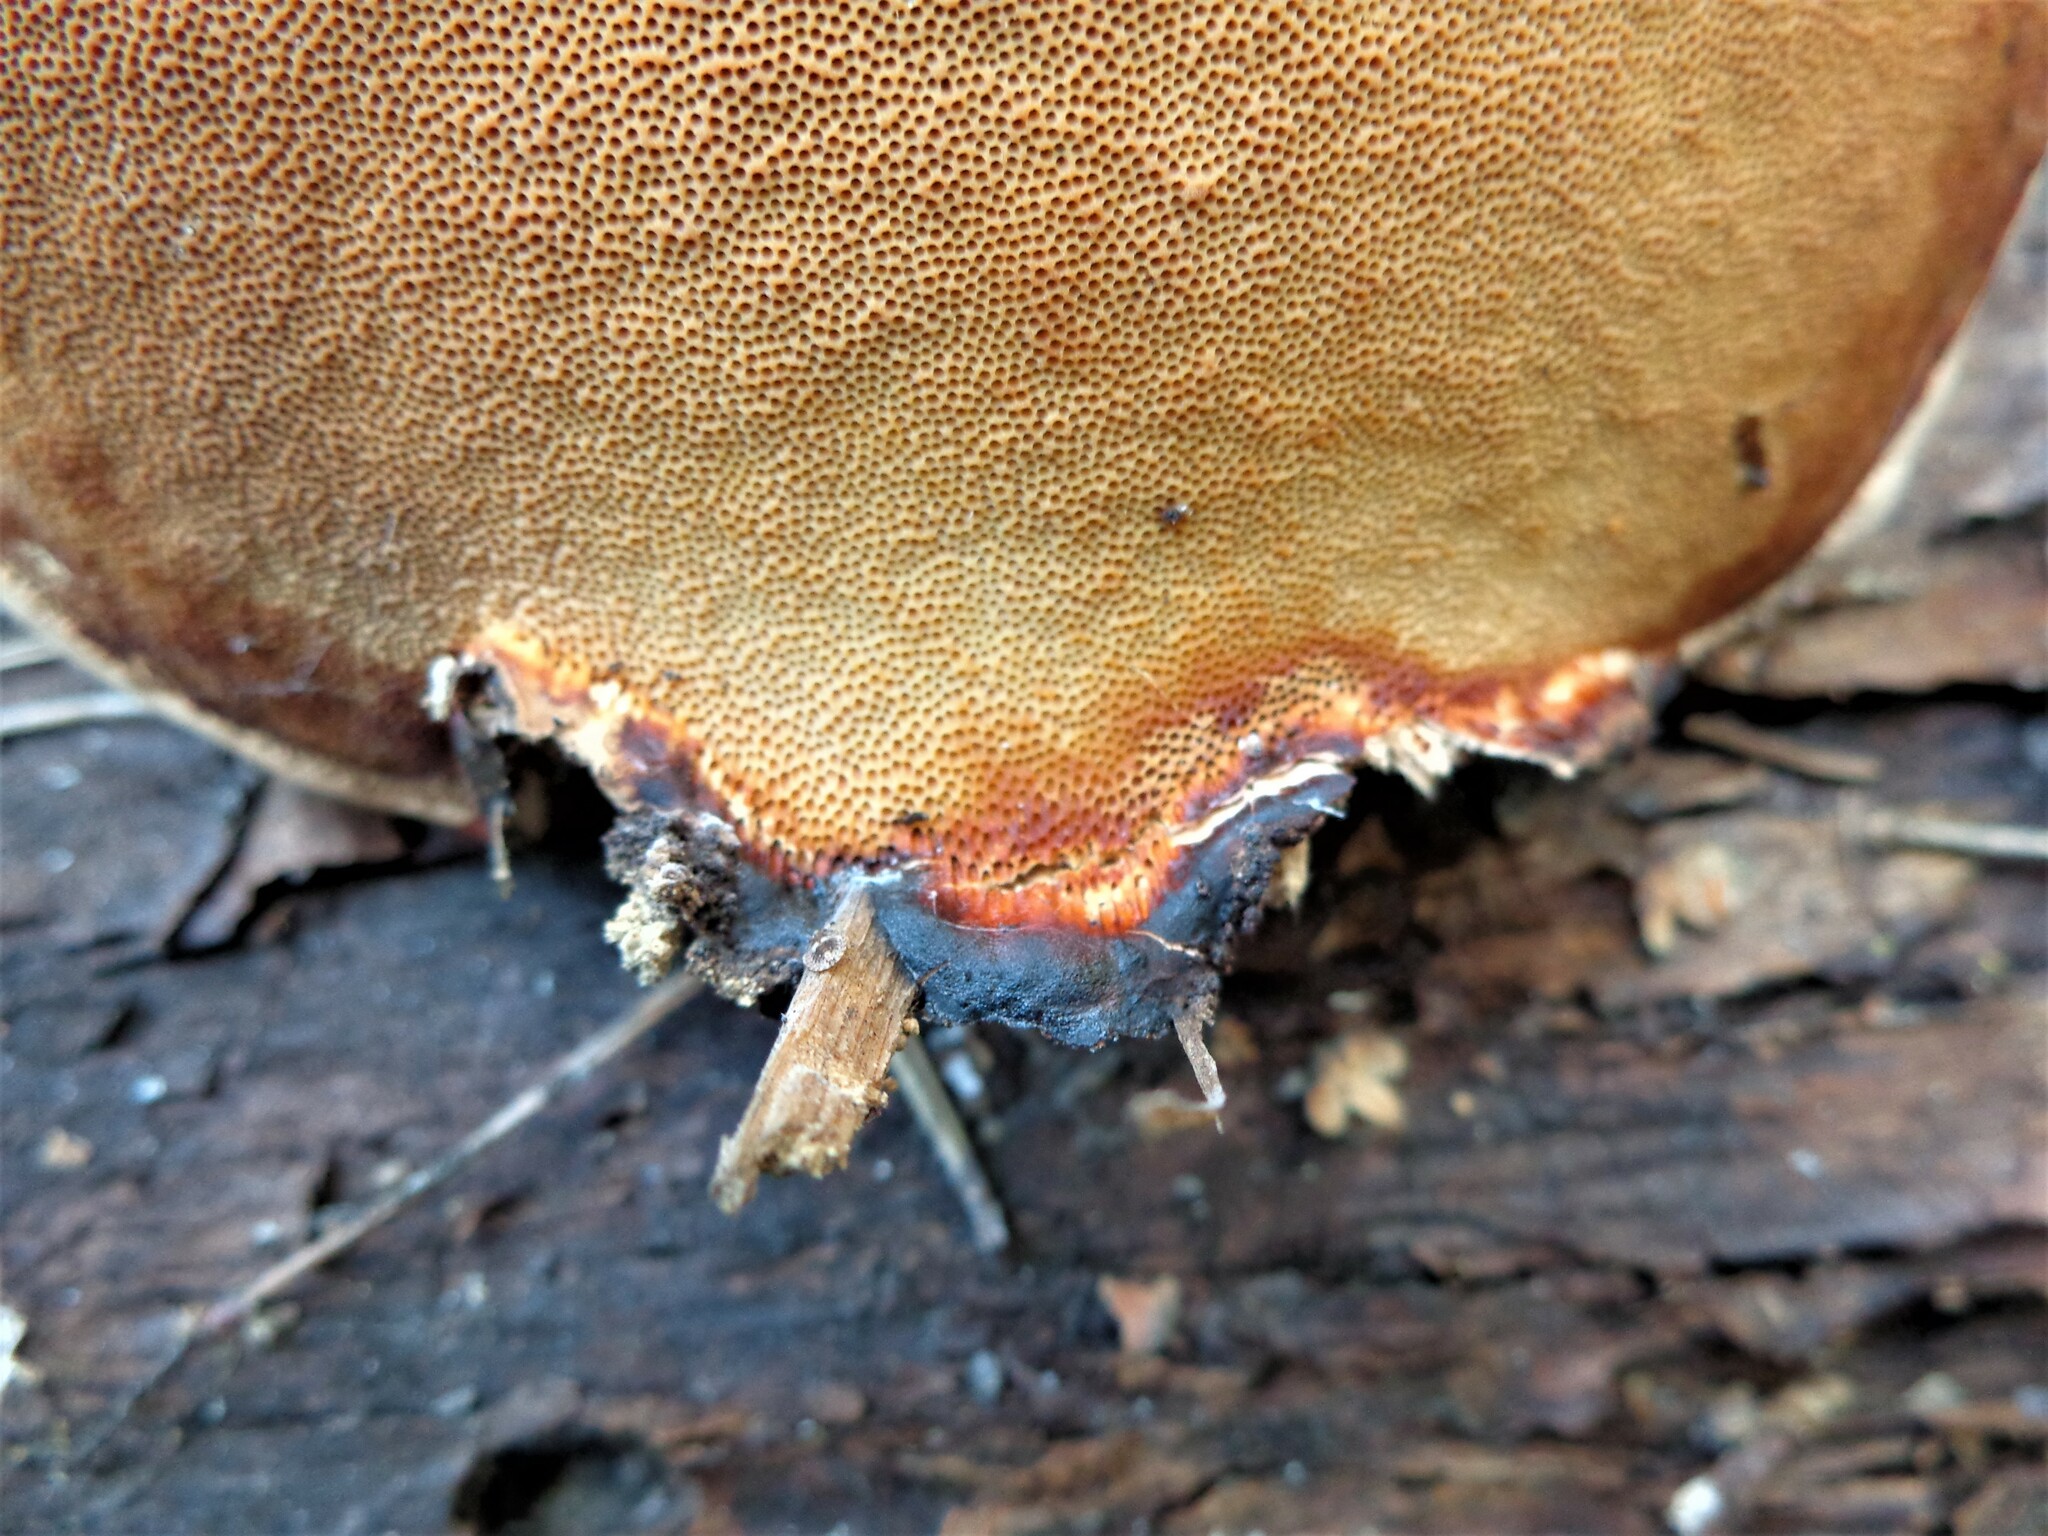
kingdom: Fungi
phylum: Basidiomycota
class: Agaricomycetes
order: Polyporales
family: Fomitopsidaceae
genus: Fomitopsis
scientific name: Fomitopsis pinicola
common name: Red-belted bracket
